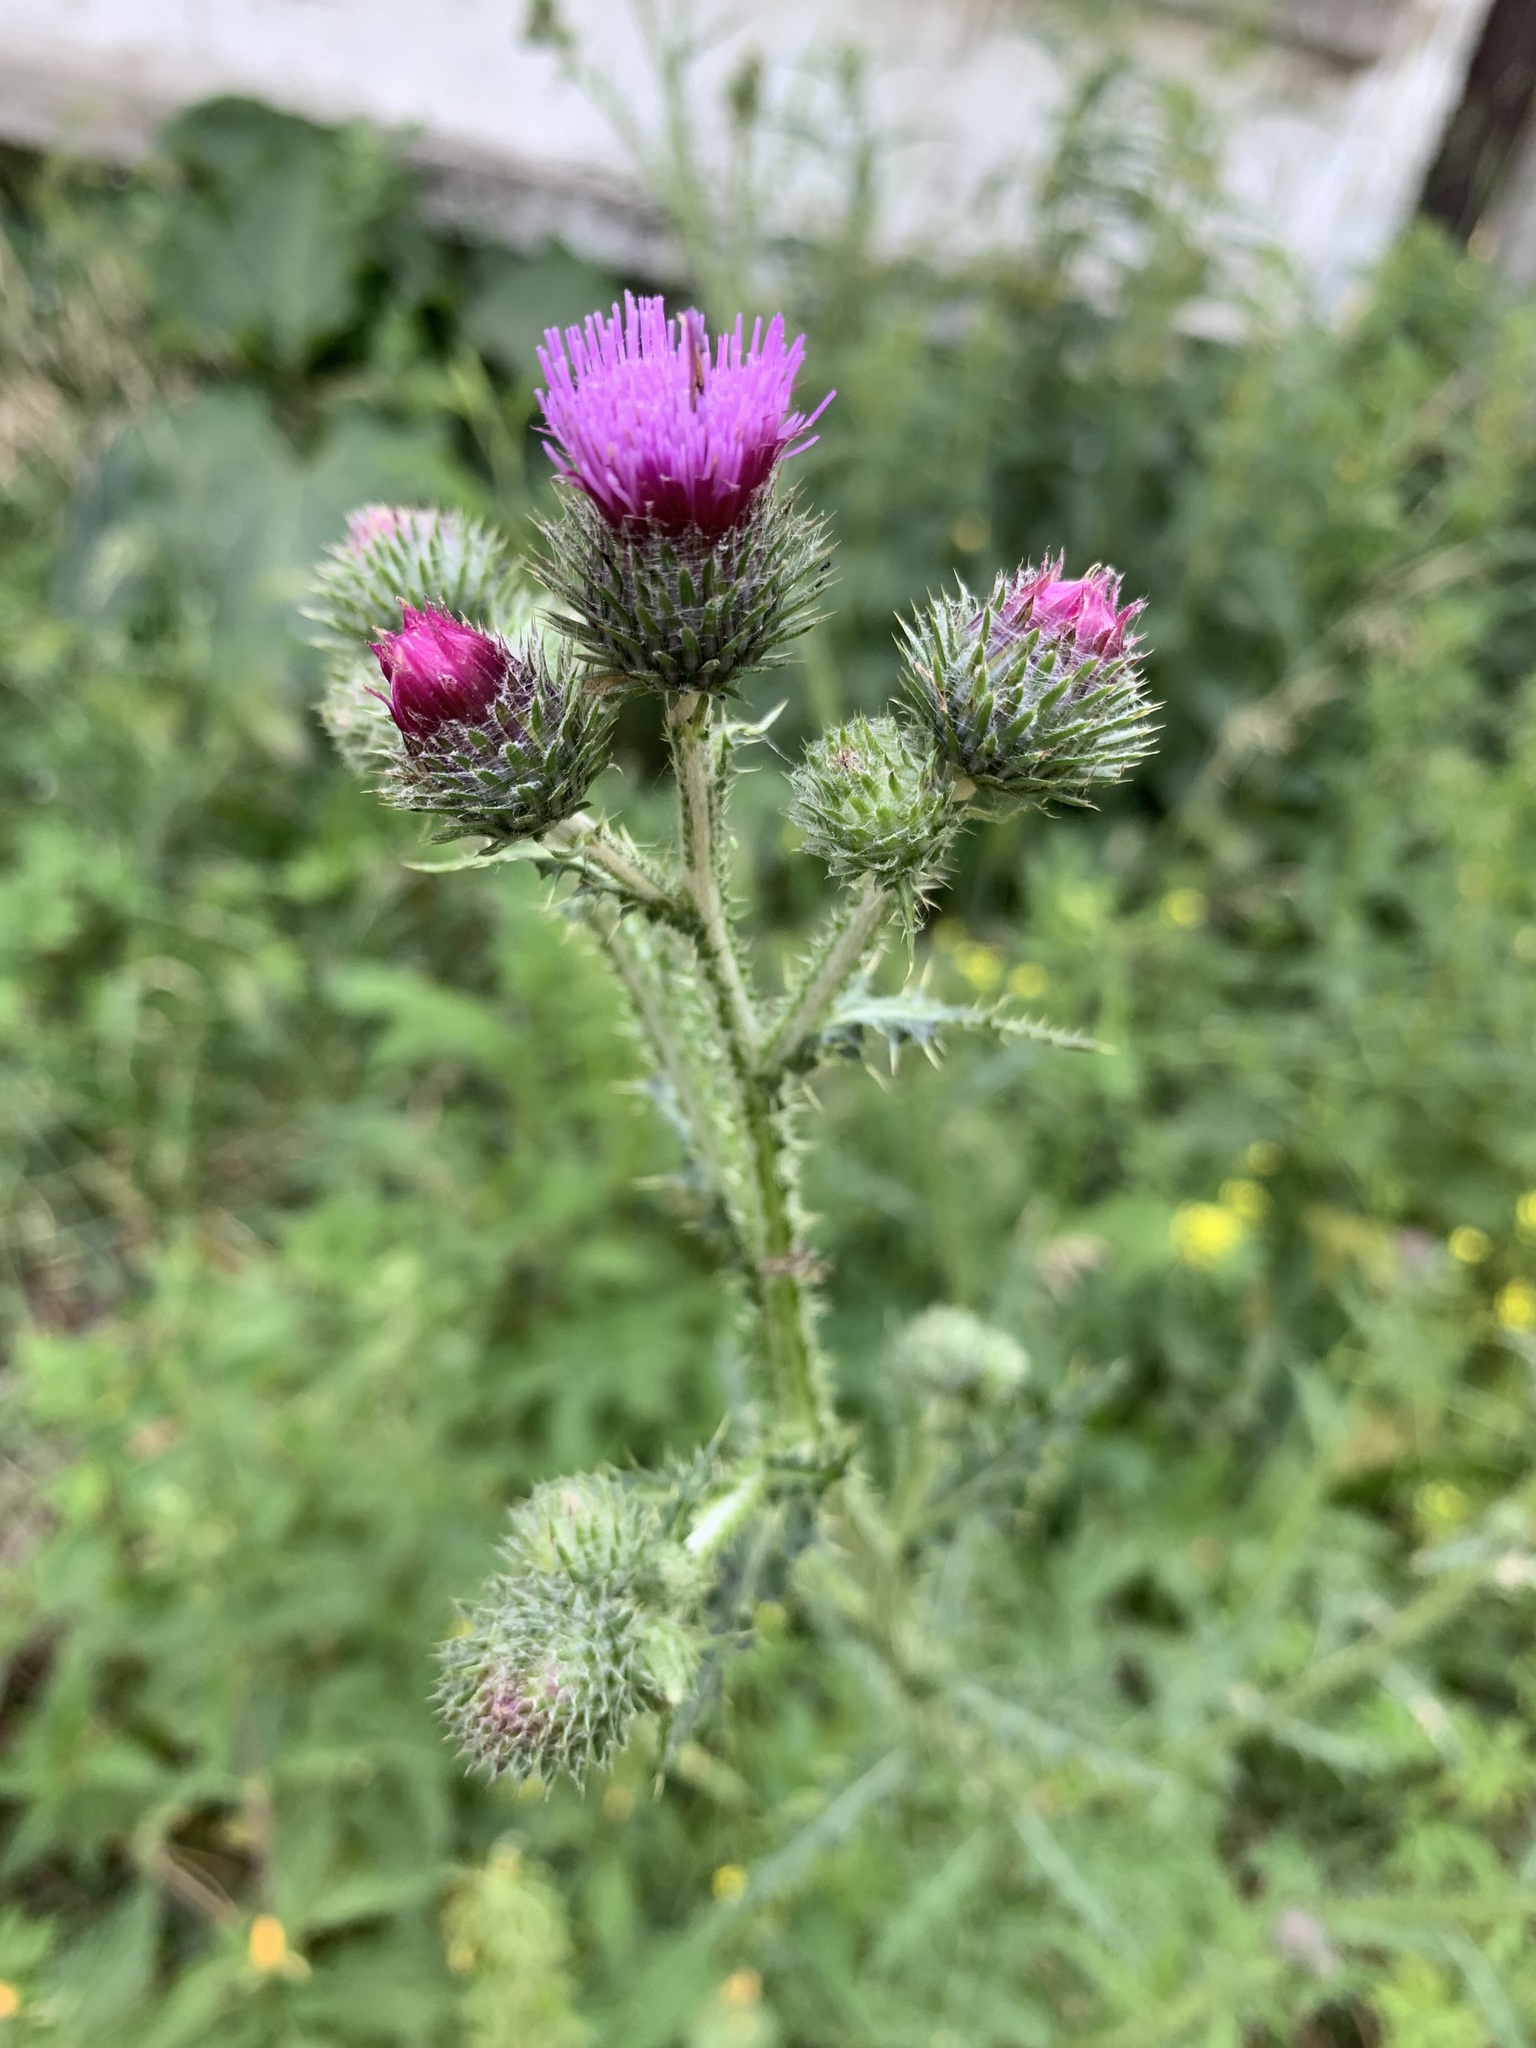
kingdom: Plantae
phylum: Tracheophyta
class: Magnoliopsida
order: Asterales
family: Asteraceae
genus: Carduus
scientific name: Carduus crispus
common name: Welted thistle
